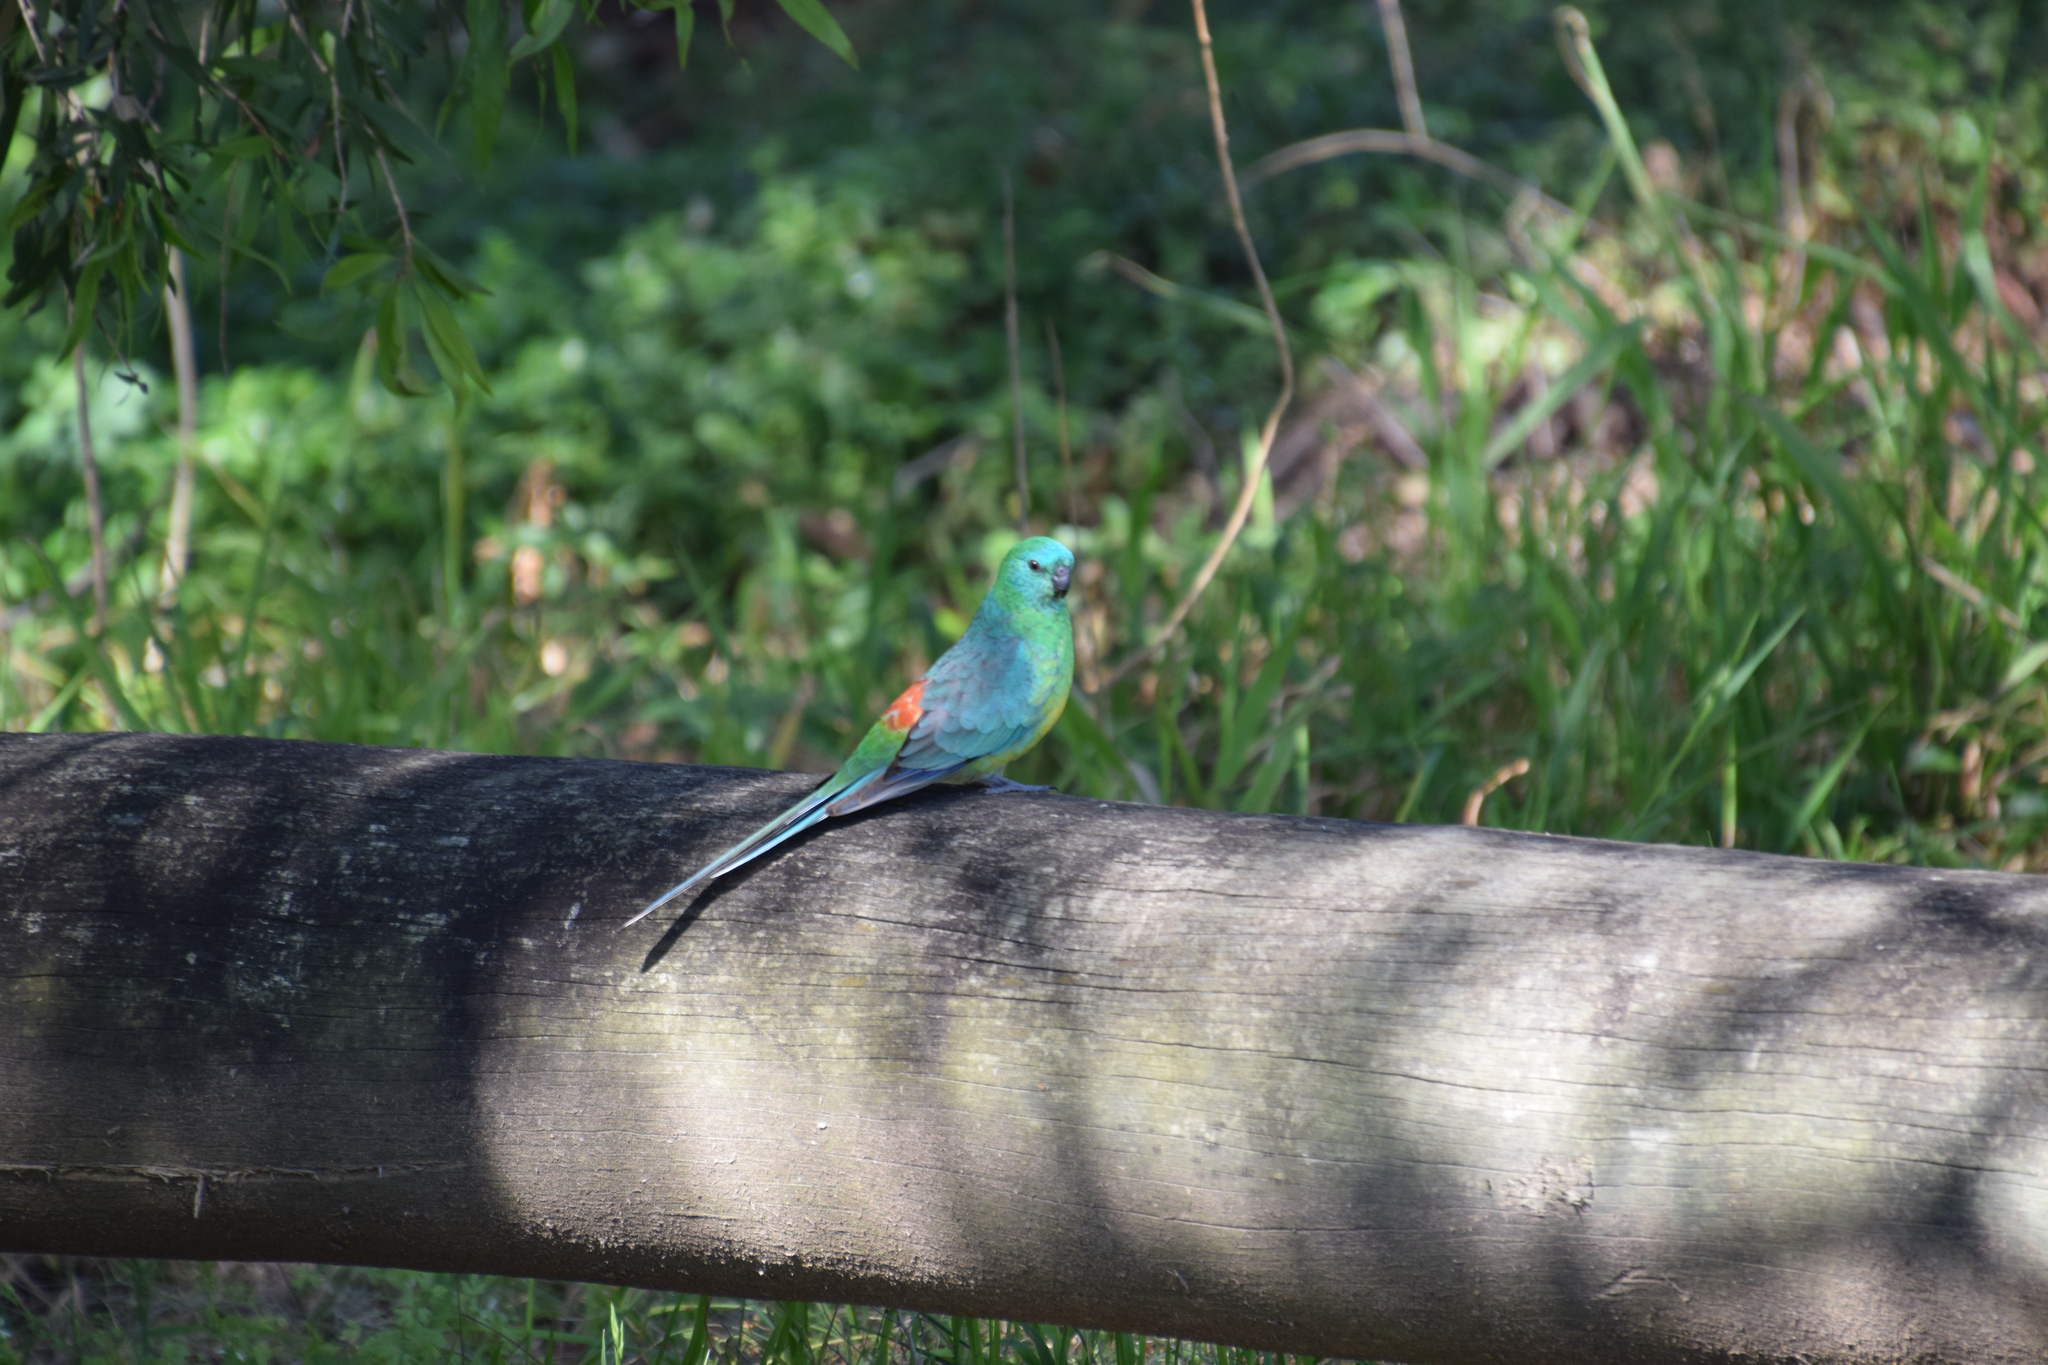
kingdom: Animalia
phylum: Chordata
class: Aves
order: Psittaciformes
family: Psittacidae
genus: Psephotus
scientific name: Psephotus haematonotus
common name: Red-rumped parrot
